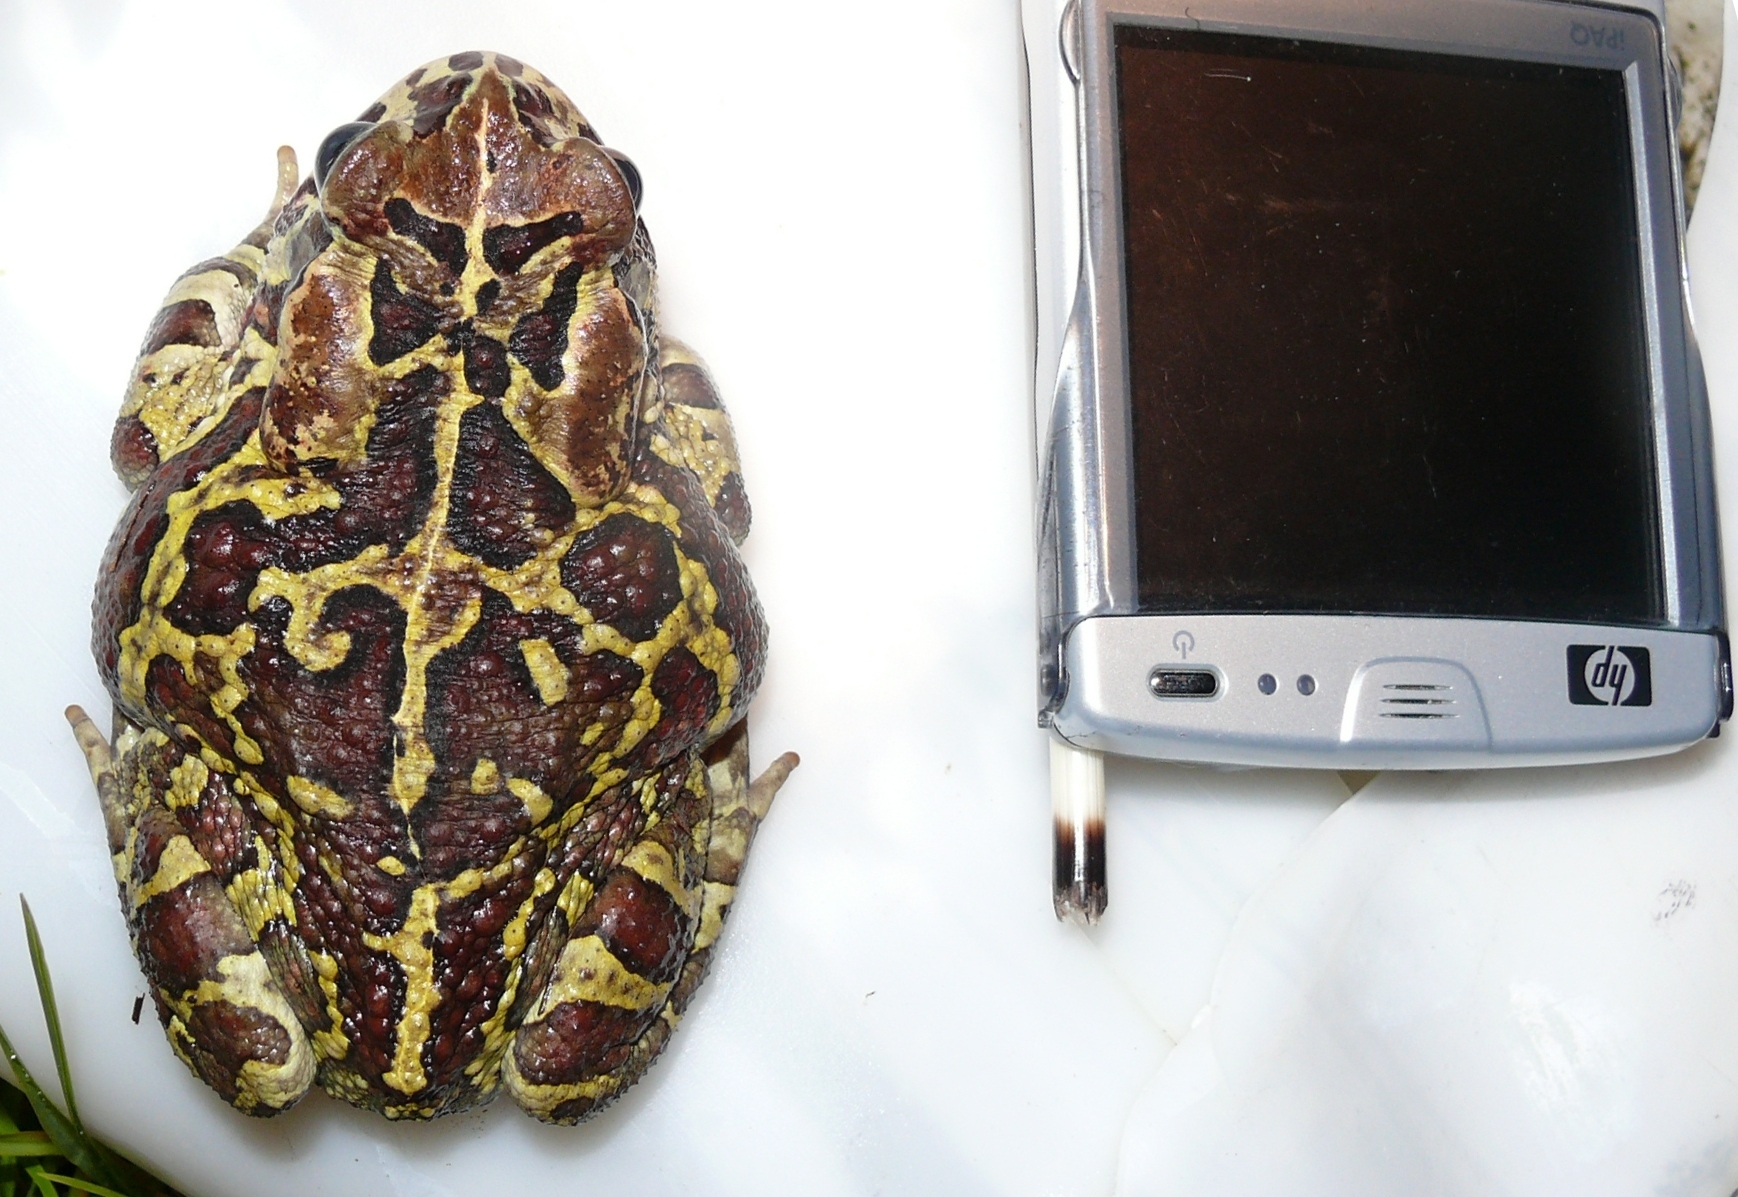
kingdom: Animalia
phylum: Chordata
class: Amphibia
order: Anura
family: Bufonidae
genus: Sclerophrys
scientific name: Sclerophrys pantherina
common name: Panther toad
